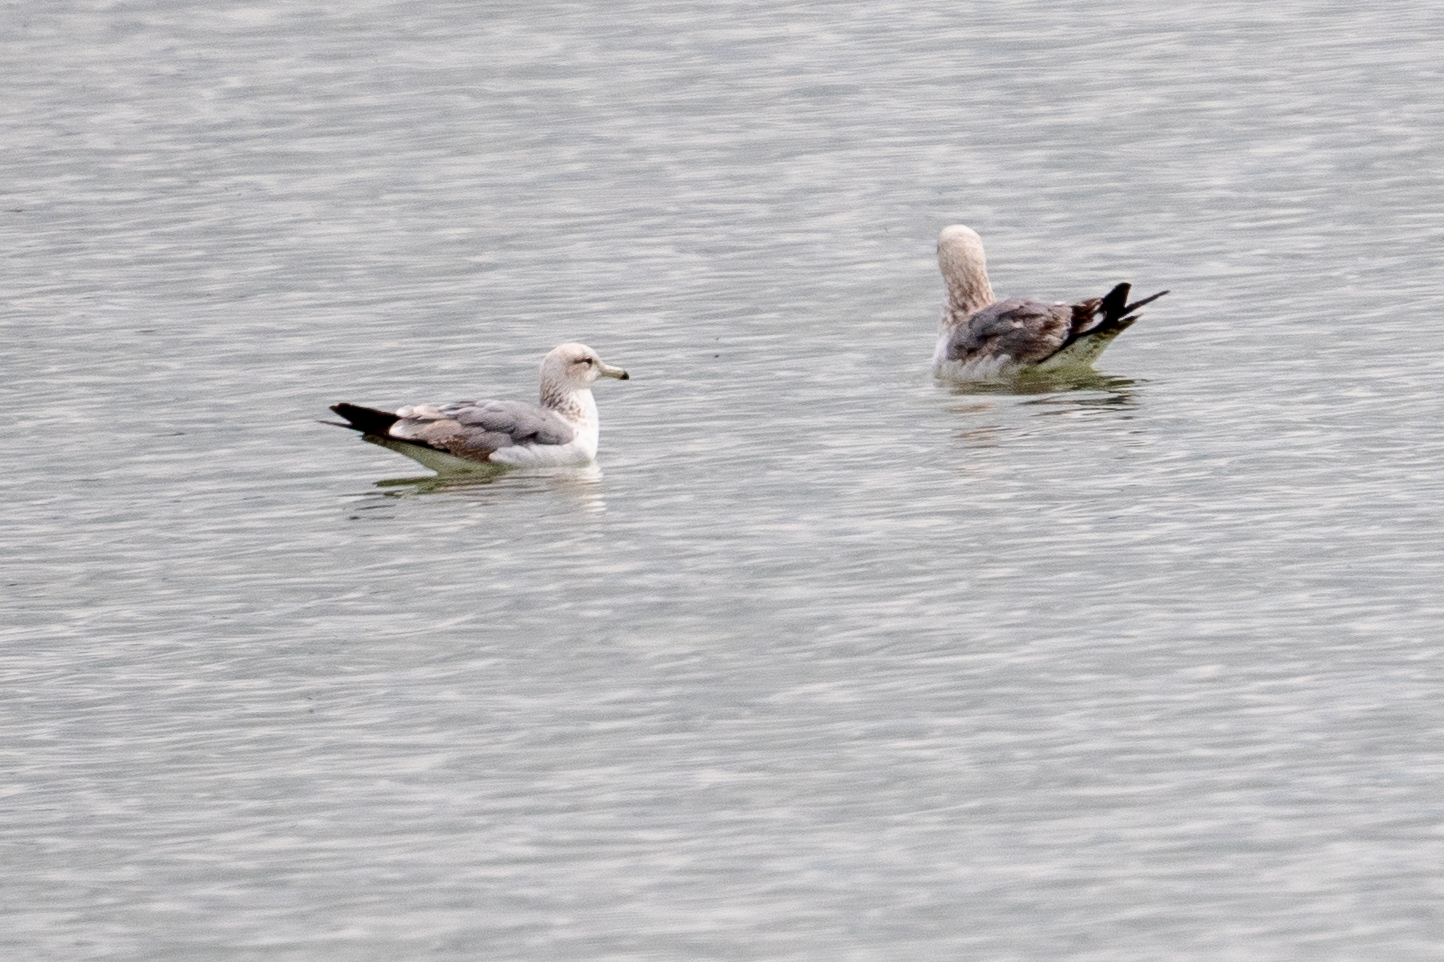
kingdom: Animalia
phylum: Chordata
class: Aves
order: Charadriiformes
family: Laridae
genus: Larus
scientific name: Larus californicus
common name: California gull
